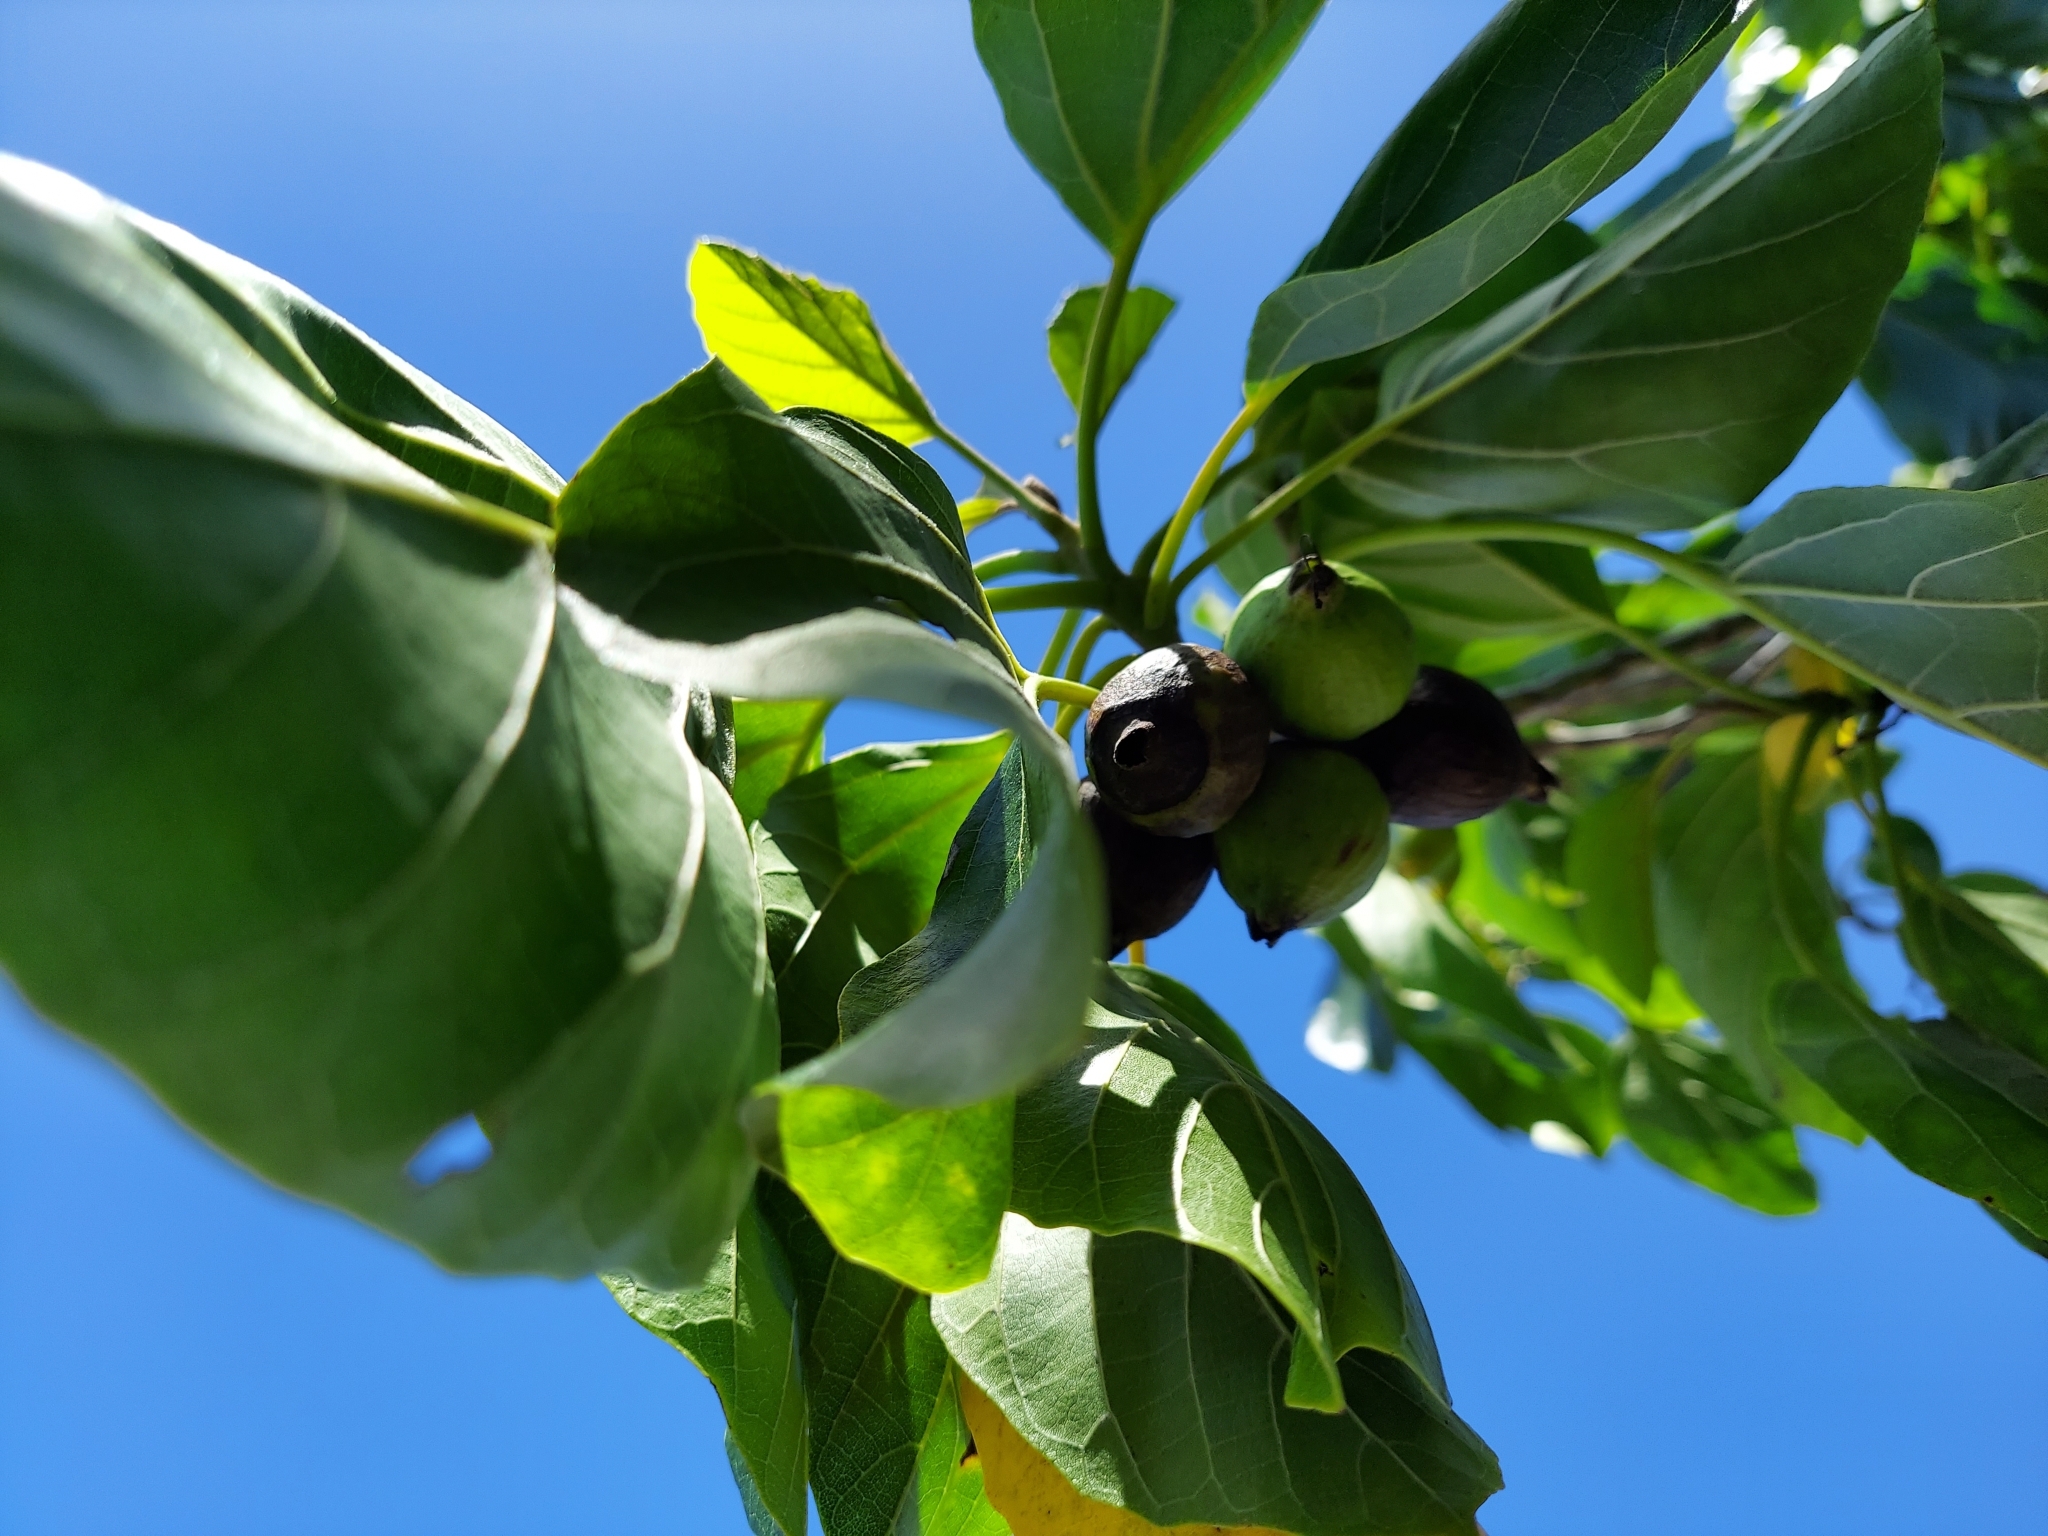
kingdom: Plantae
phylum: Tracheophyta
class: Magnoliopsida
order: Boraginales
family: Cordiaceae
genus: Cordia
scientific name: Cordia subcordata
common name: Mareer
